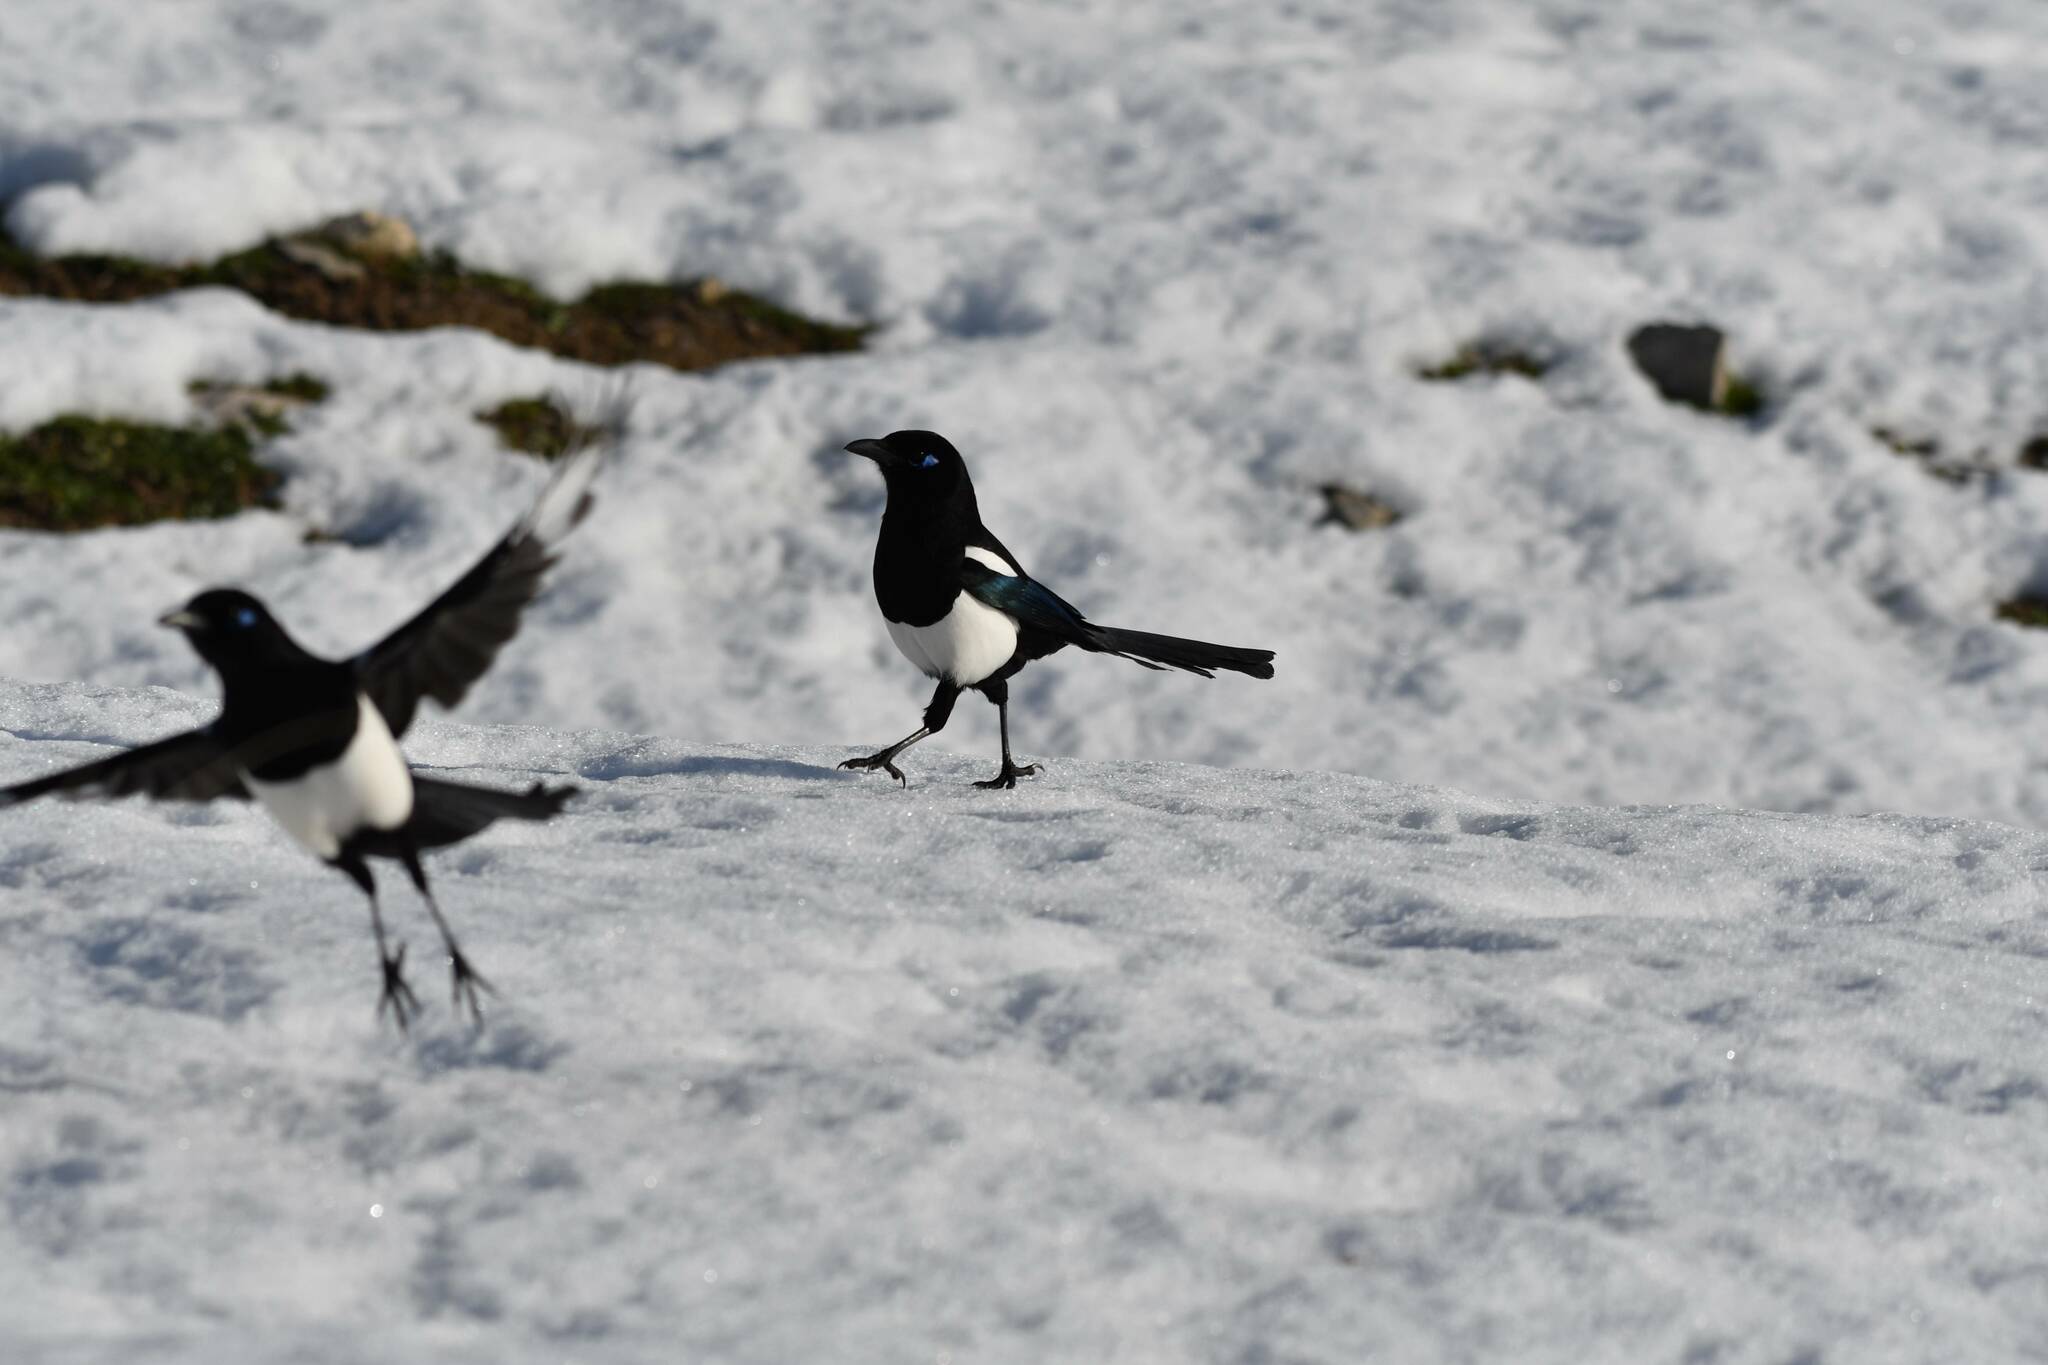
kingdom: Animalia
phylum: Chordata
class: Aves
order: Passeriformes
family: Corvidae
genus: Pica
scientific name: Pica mauritanica
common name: Maghreb magpie
